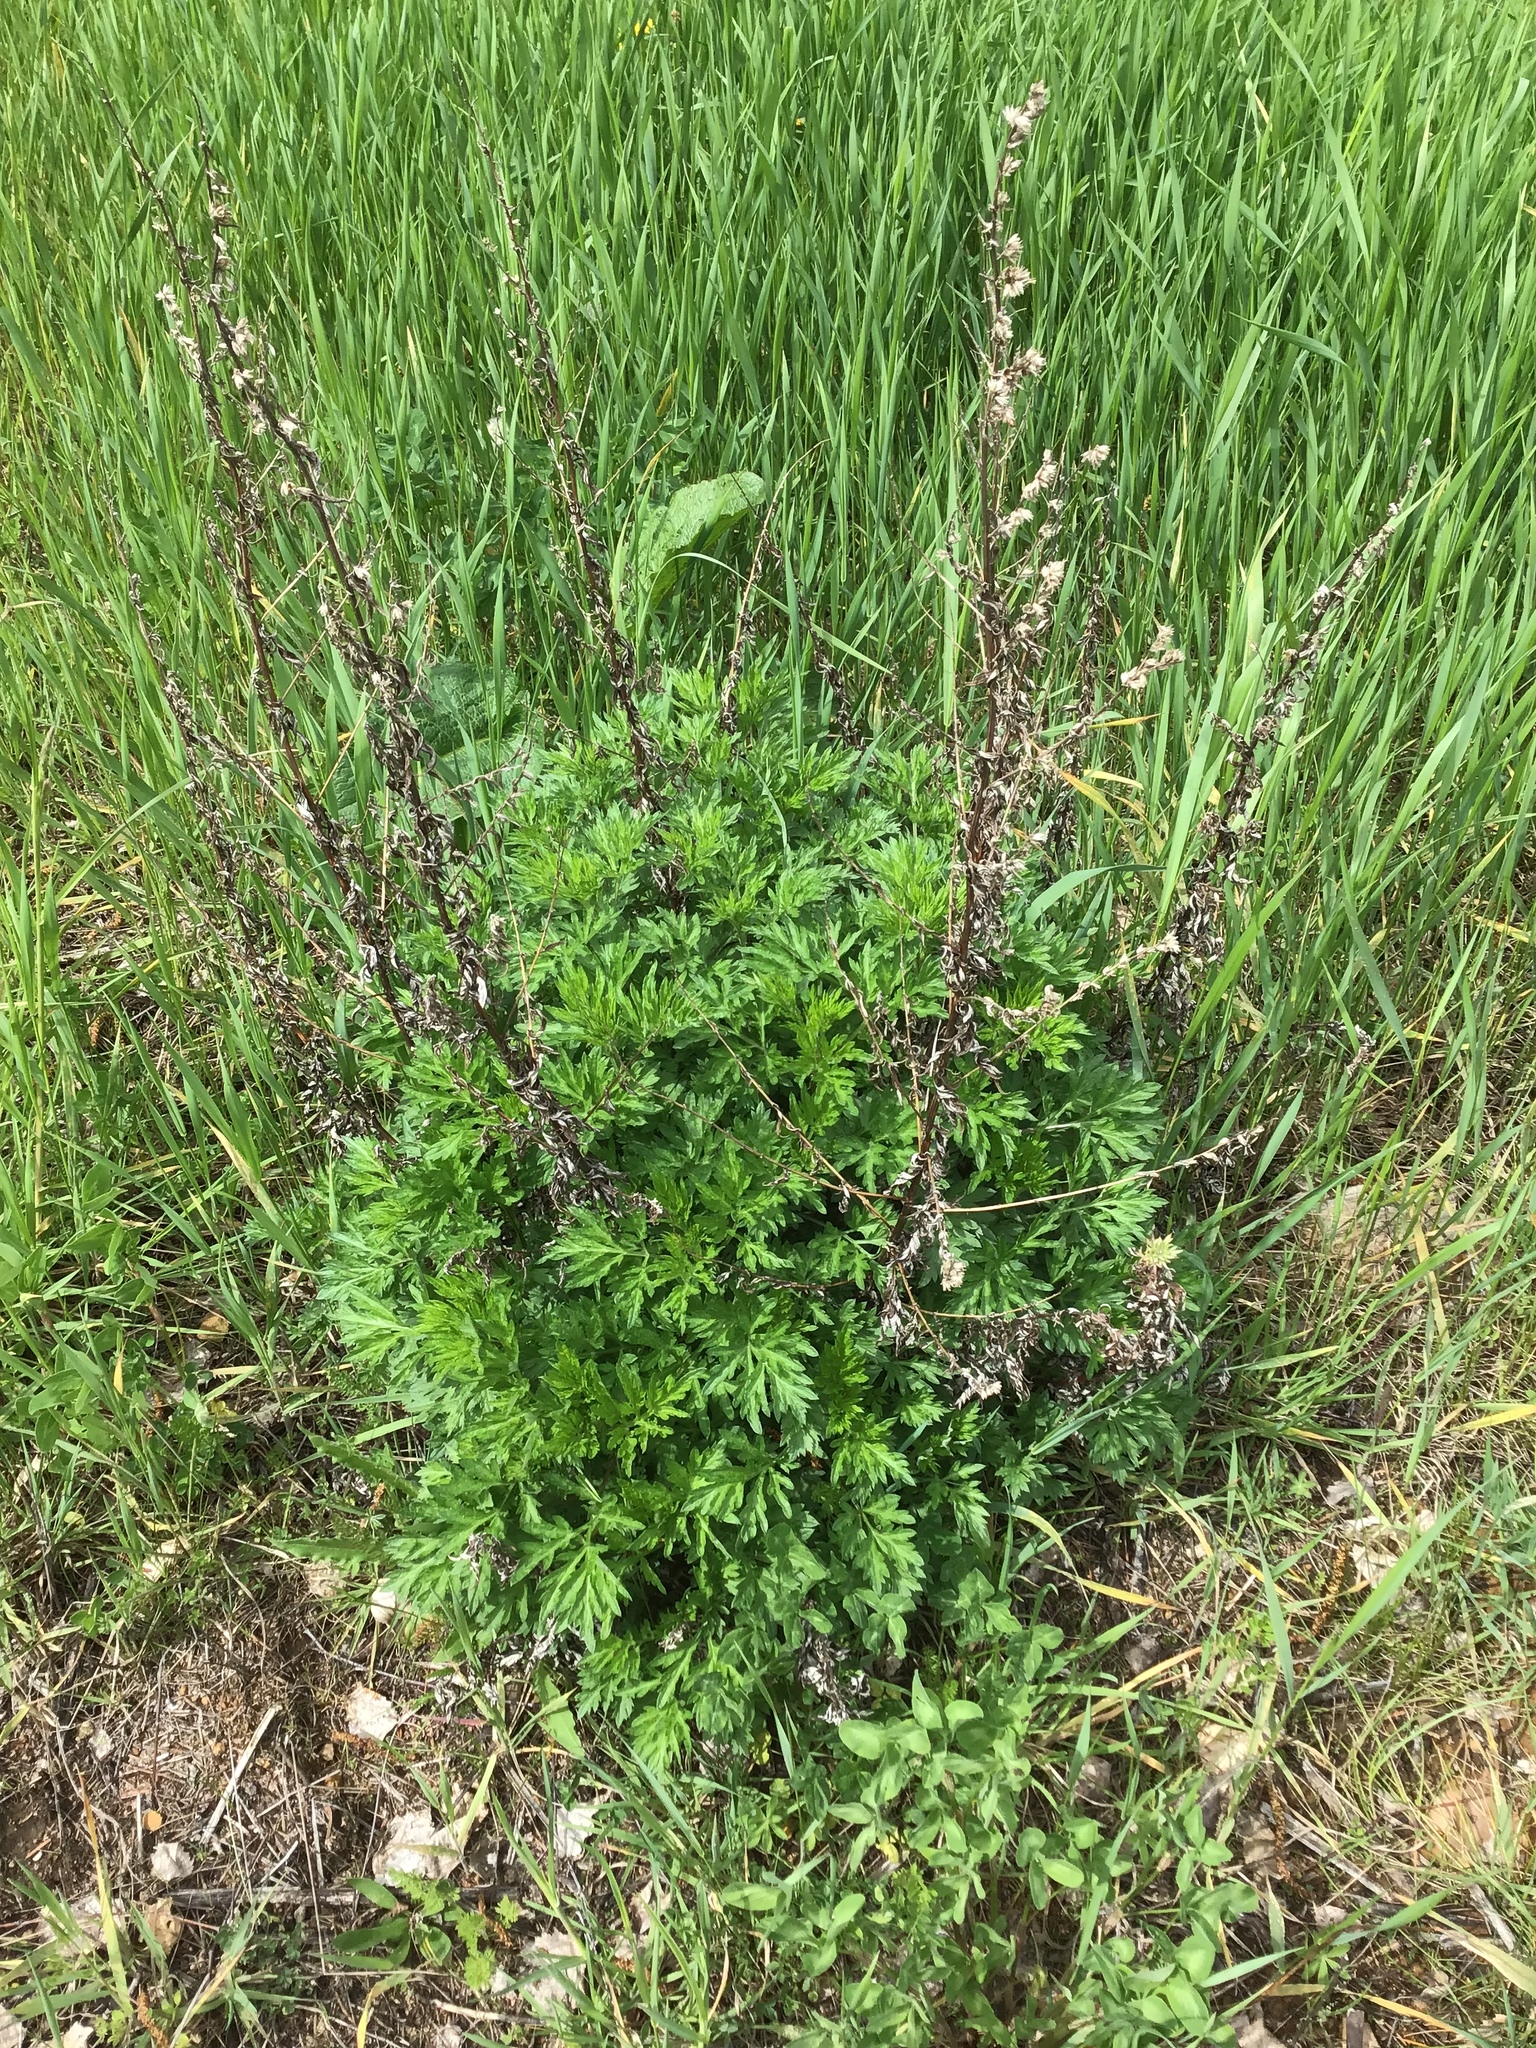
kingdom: Plantae
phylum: Tracheophyta
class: Magnoliopsida
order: Asterales
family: Asteraceae
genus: Artemisia
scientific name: Artemisia vulgaris
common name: Mugwort
